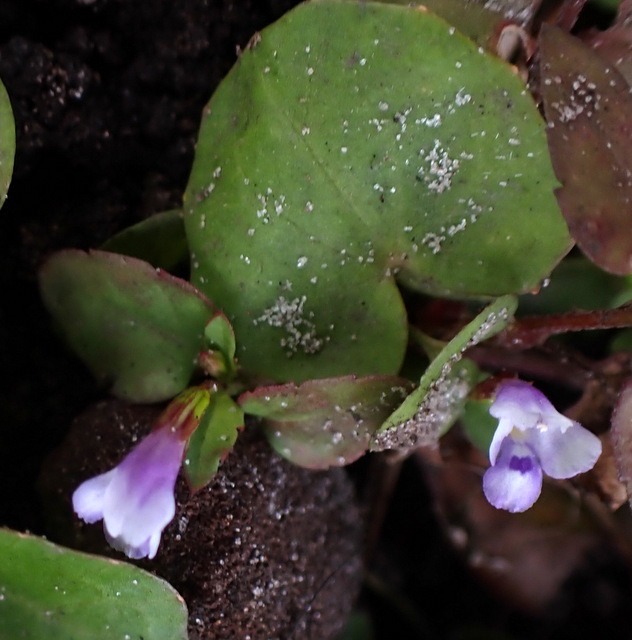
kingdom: Plantae
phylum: Tracheophyta
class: Magnoliopsida
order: Lamiales
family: Linderniaceae
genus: Torenia
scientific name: Torenia crustacea
